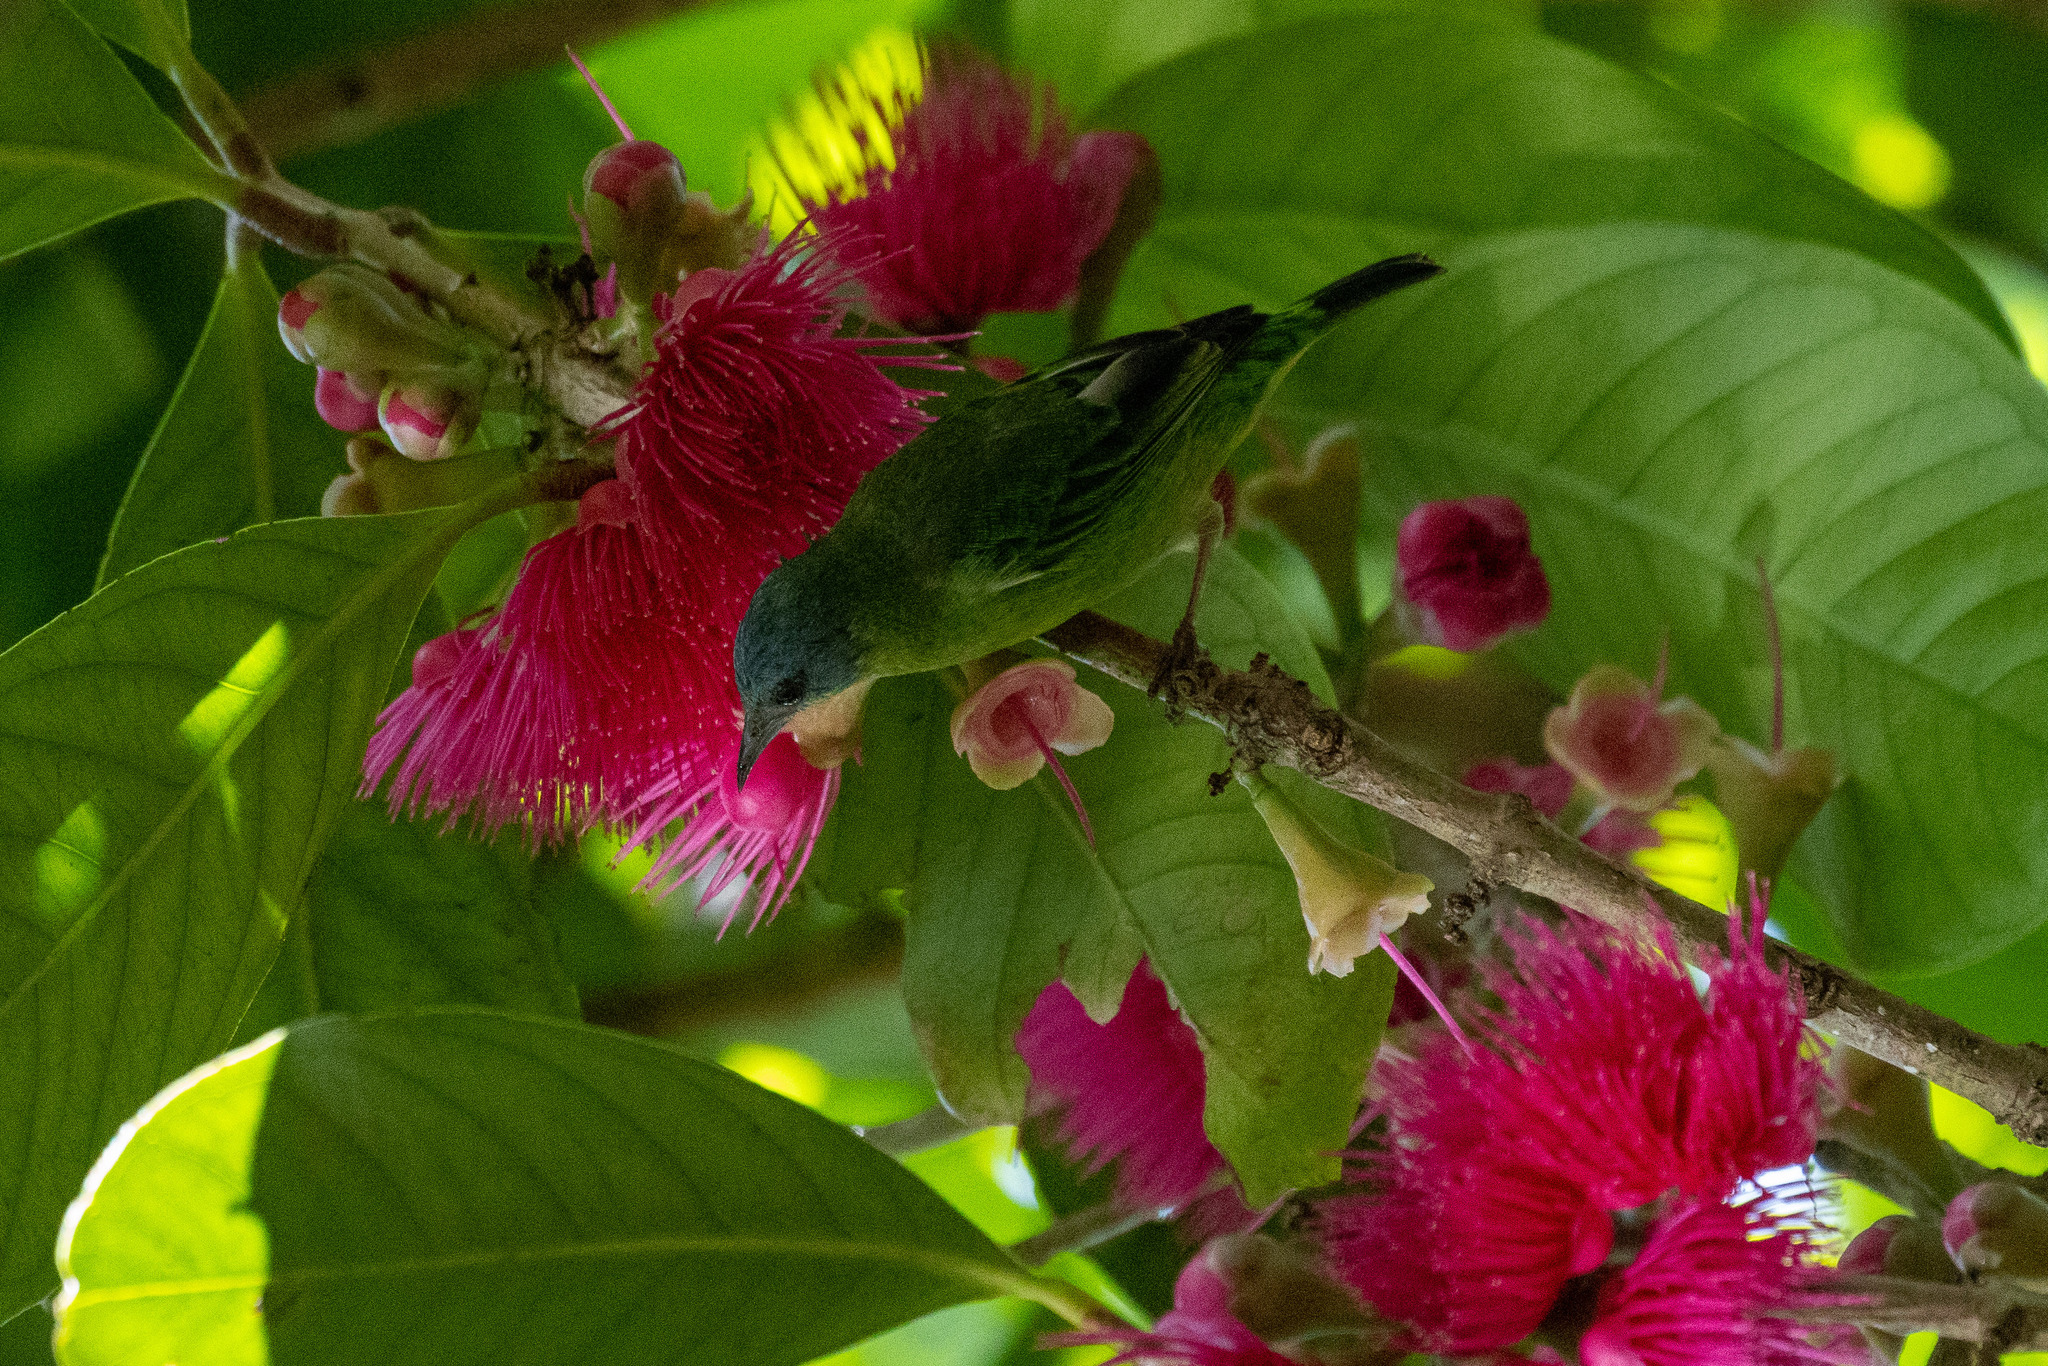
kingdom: Animalia
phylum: Chordata
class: Aves
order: Passeriformes
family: Thraupidae
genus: Dacnis
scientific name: Dacnis cayana
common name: Blue dacnis
